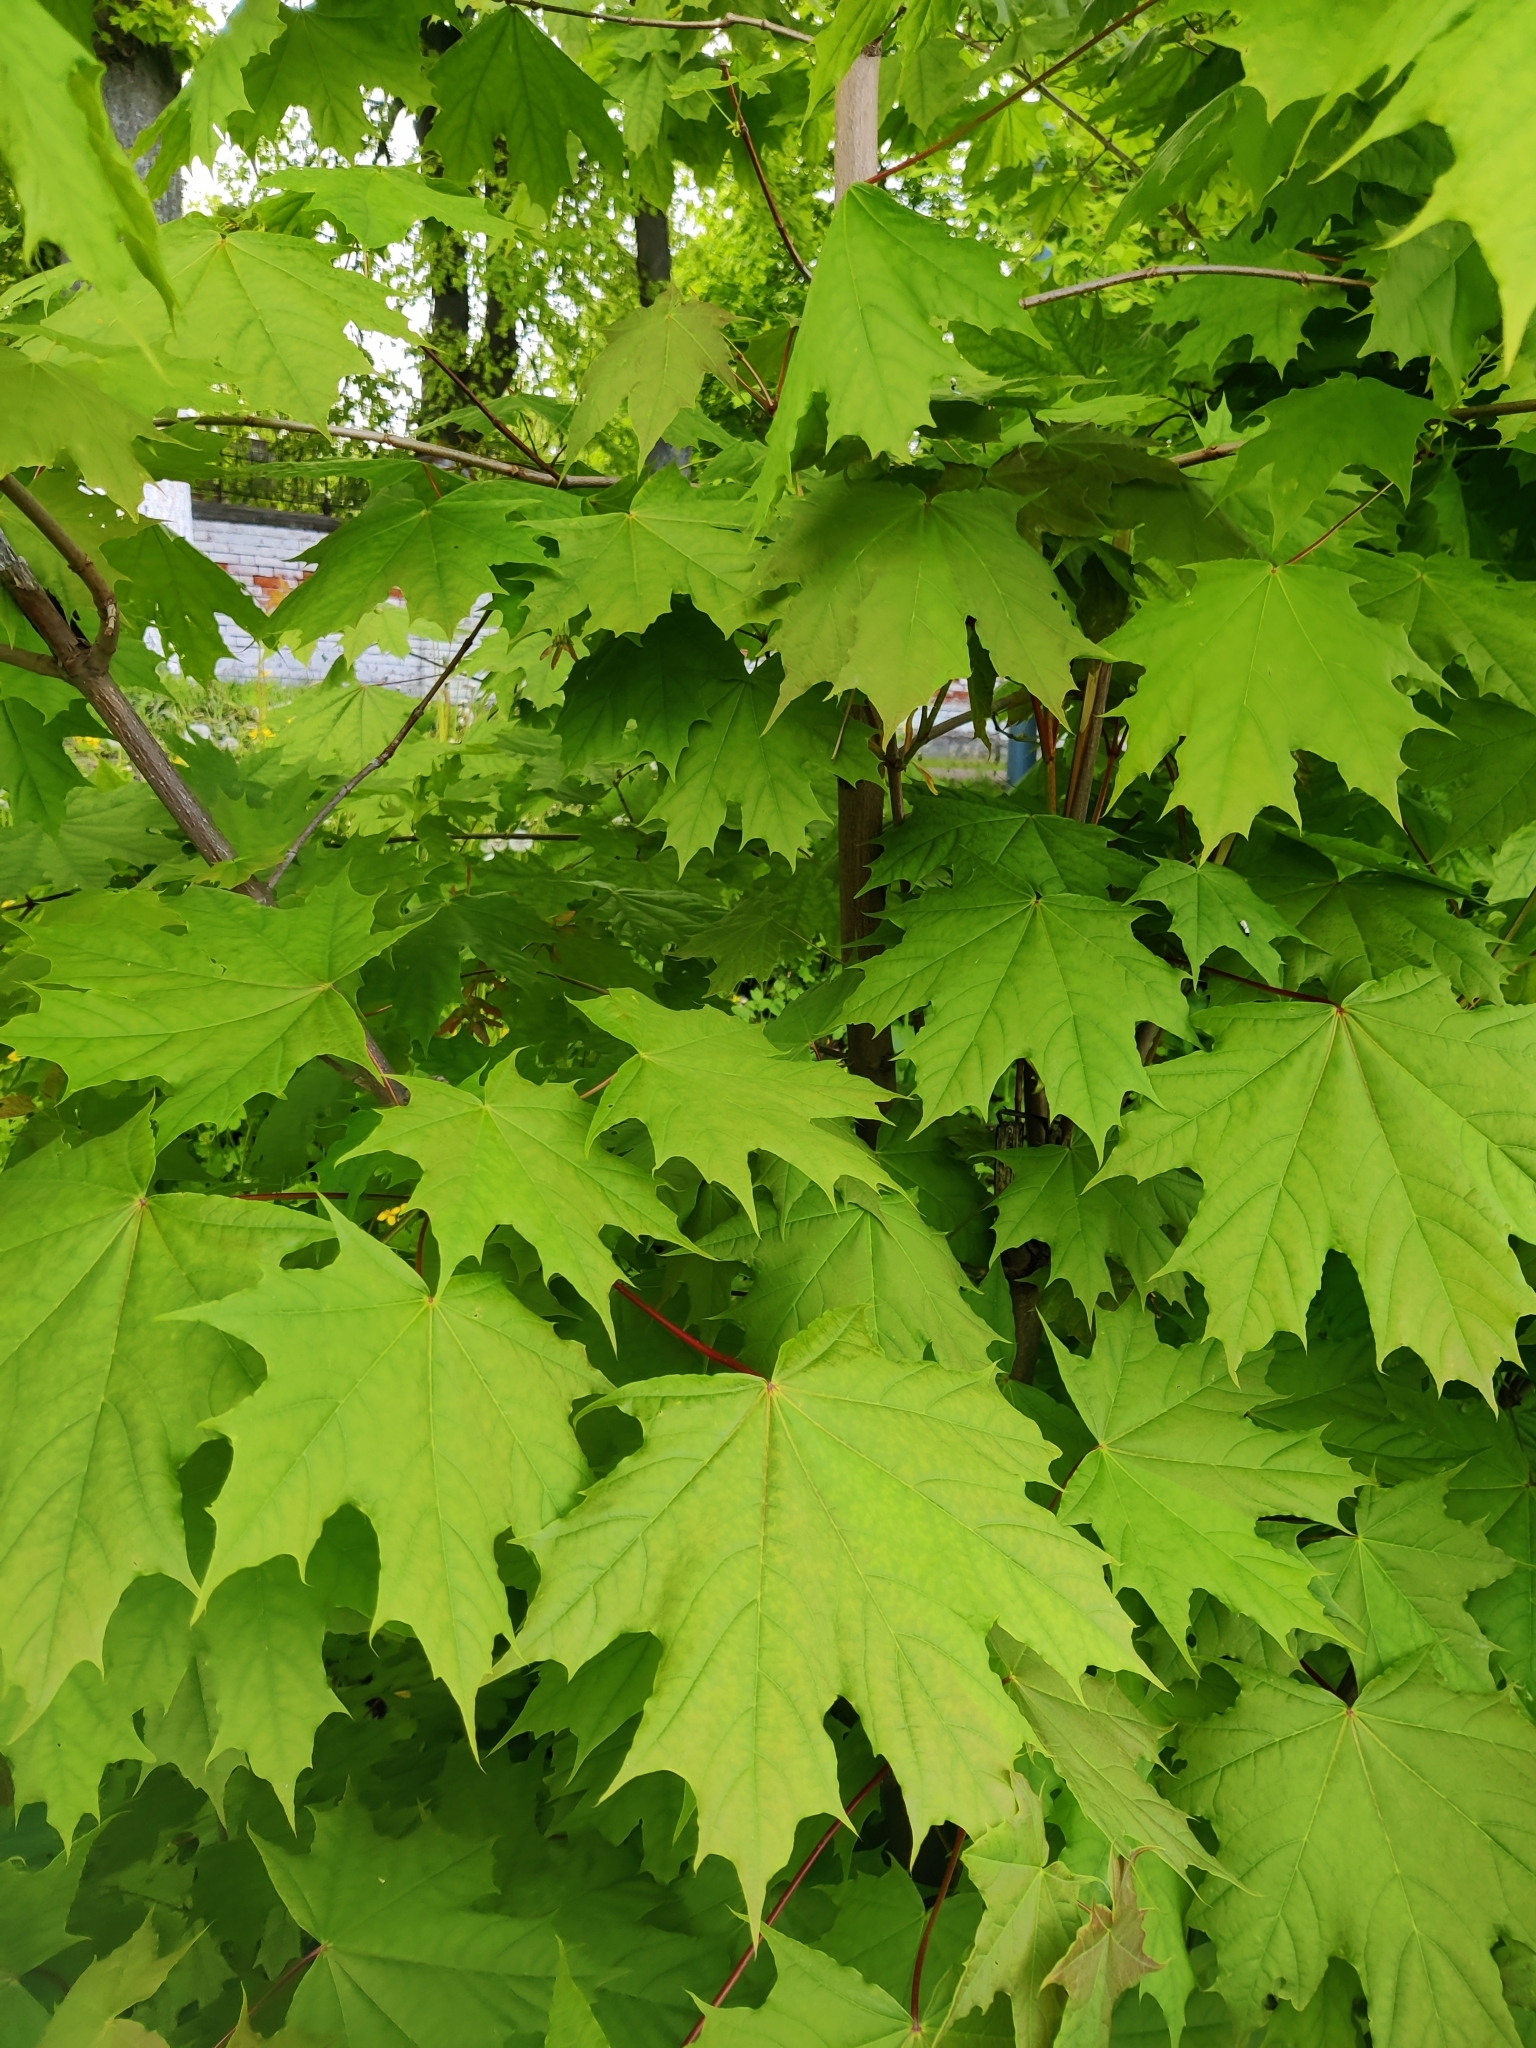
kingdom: Plantae
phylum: Tracheophyta
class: Magnoliopsida
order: Sapindales
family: Sapindaceae
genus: Acer
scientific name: Acer platanoides
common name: Norway maple
